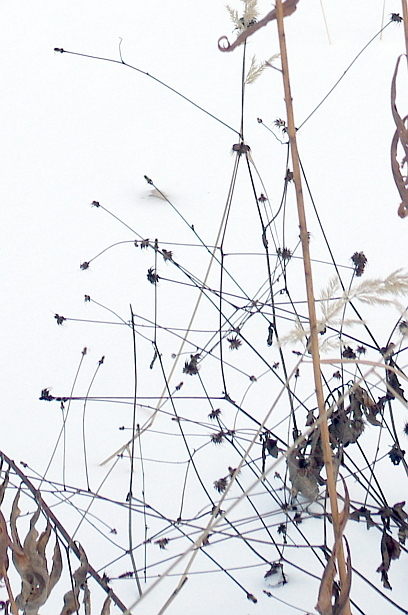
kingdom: Plantae
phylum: Tracheophyta
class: Magnoliopsida
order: Rosales
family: Rosaceae
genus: Geum
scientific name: Geum urbanum
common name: Wood avens
